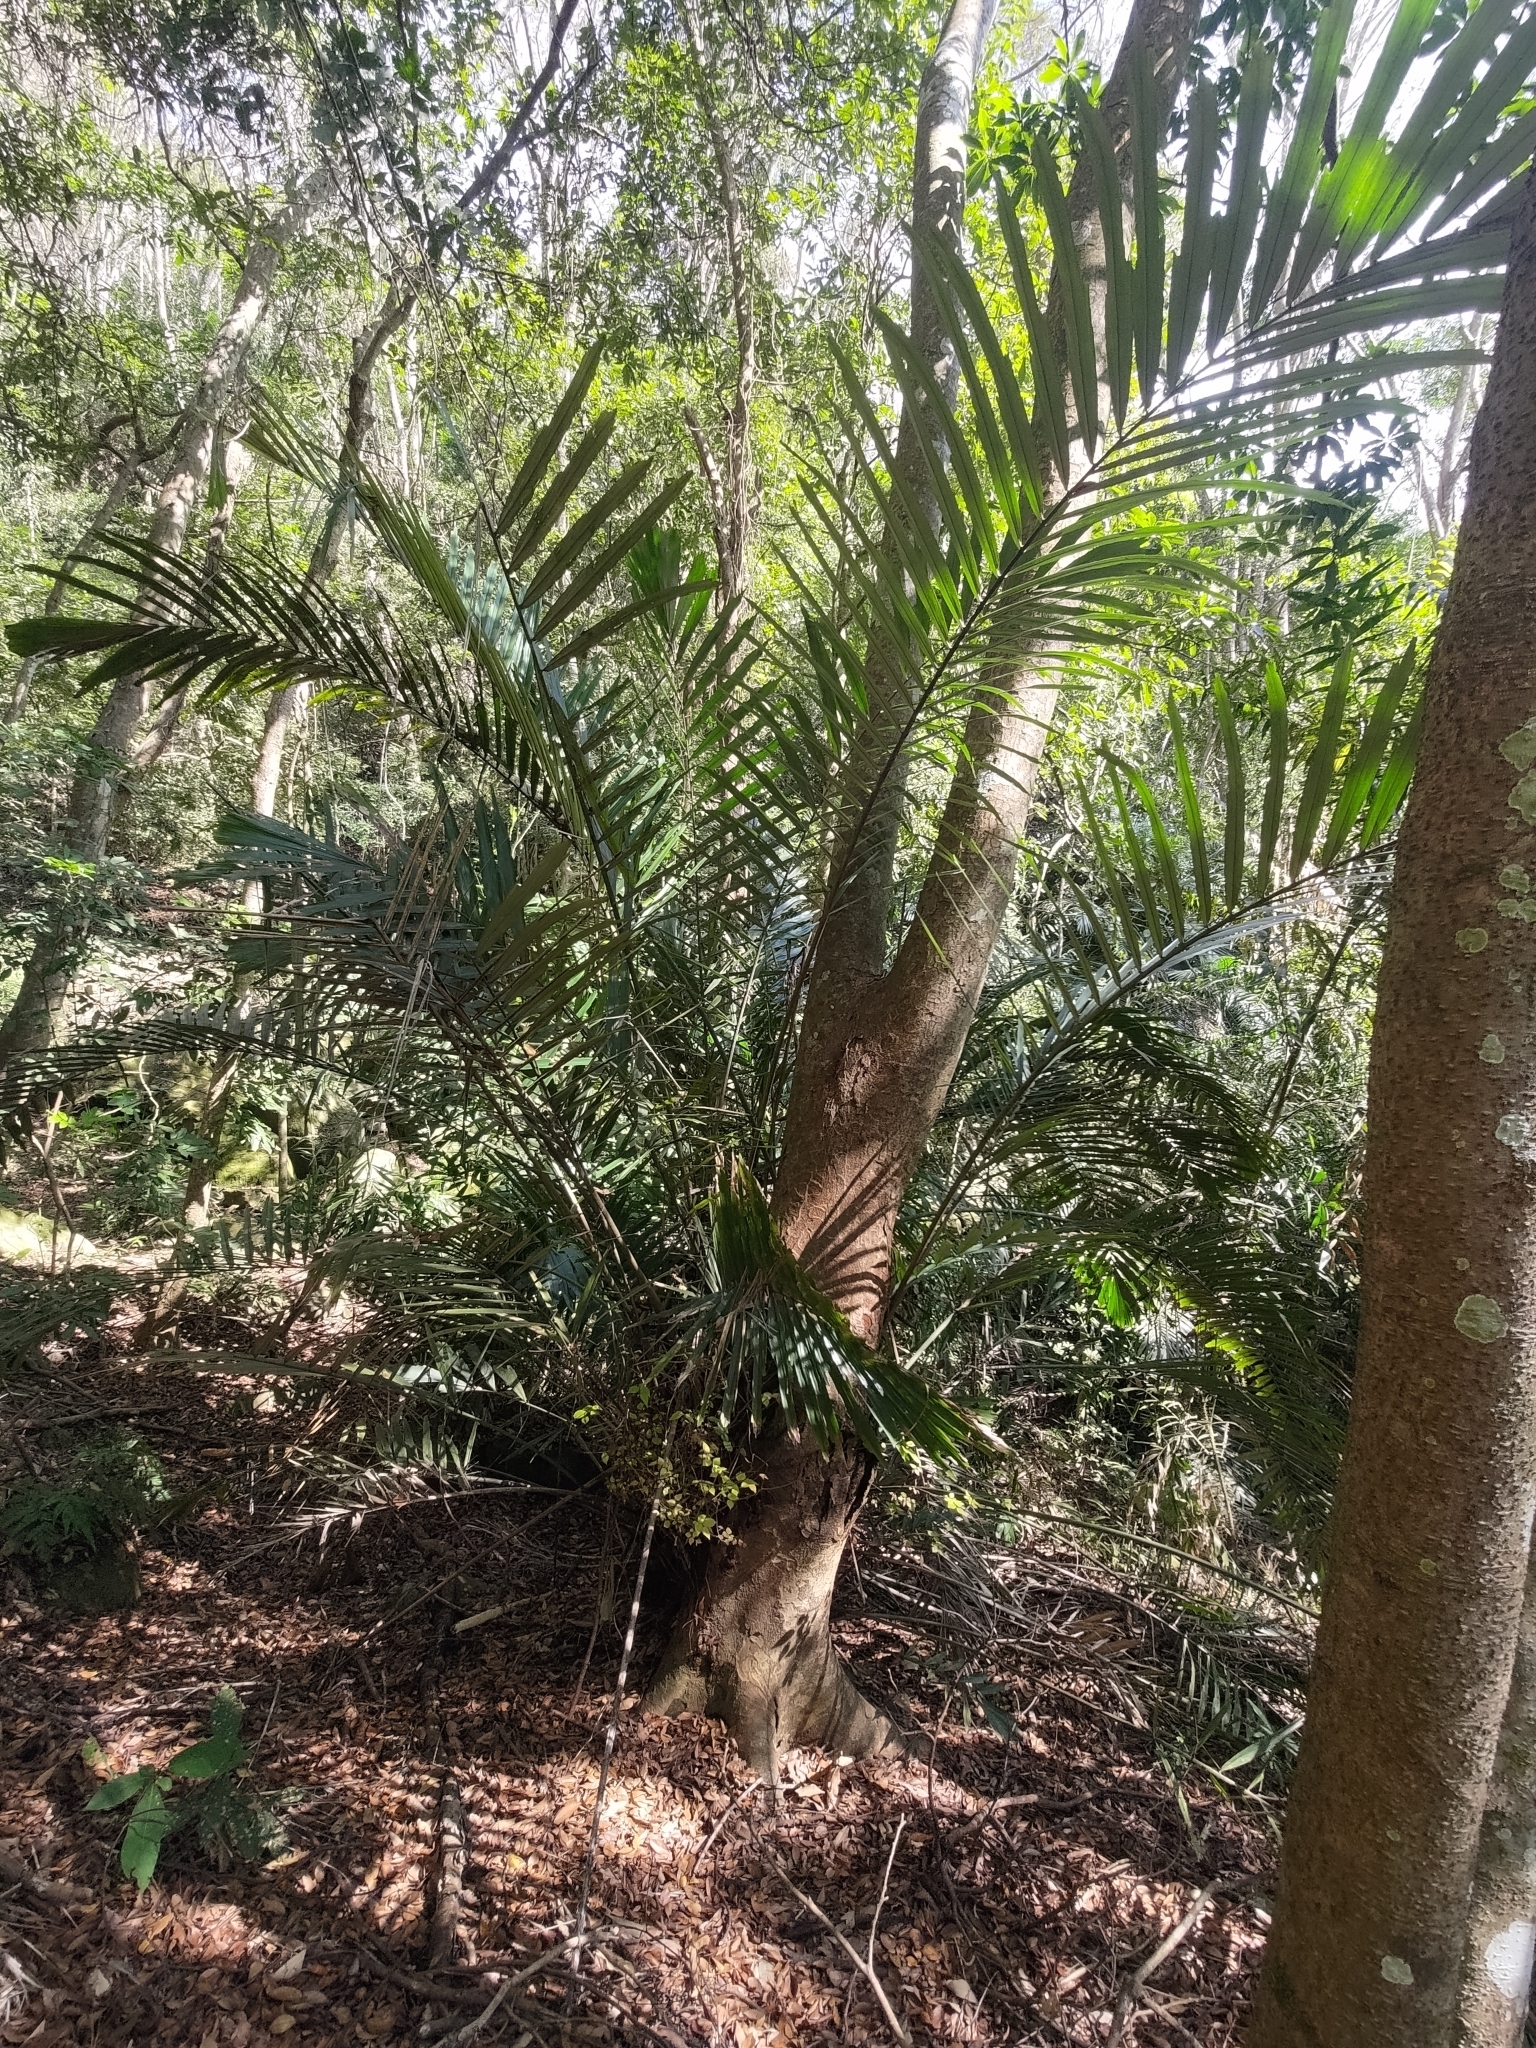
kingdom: Plantae
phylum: Tracheophyta
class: Liliopsida
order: Arecales
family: Arecaceae
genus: Arenga
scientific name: Arenga engleri
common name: Formosan sugar palm
